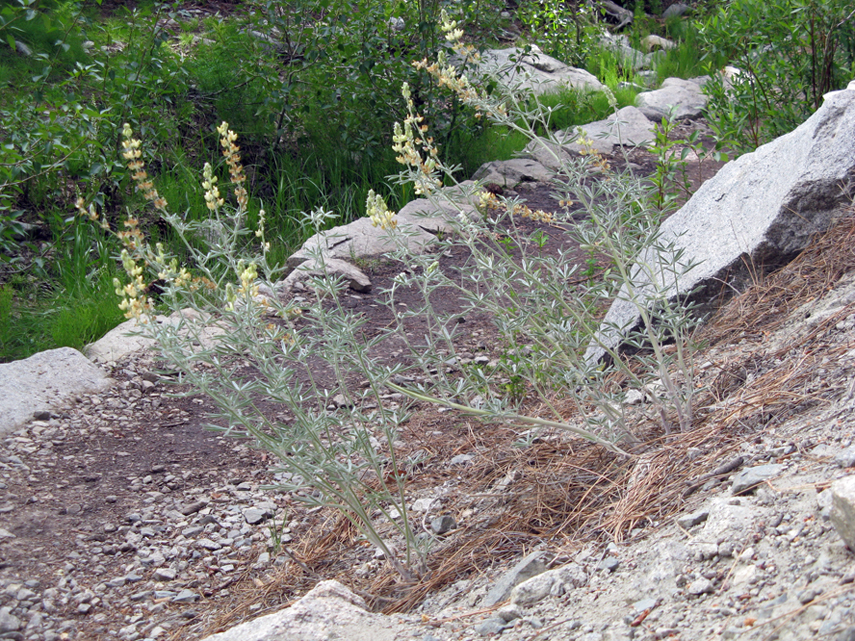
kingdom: Plantae
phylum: Tracheophyta
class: Magnoliopsida
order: Fabales
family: Fabaceae
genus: Lupinus
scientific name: Lupinus padre-crowleyi
